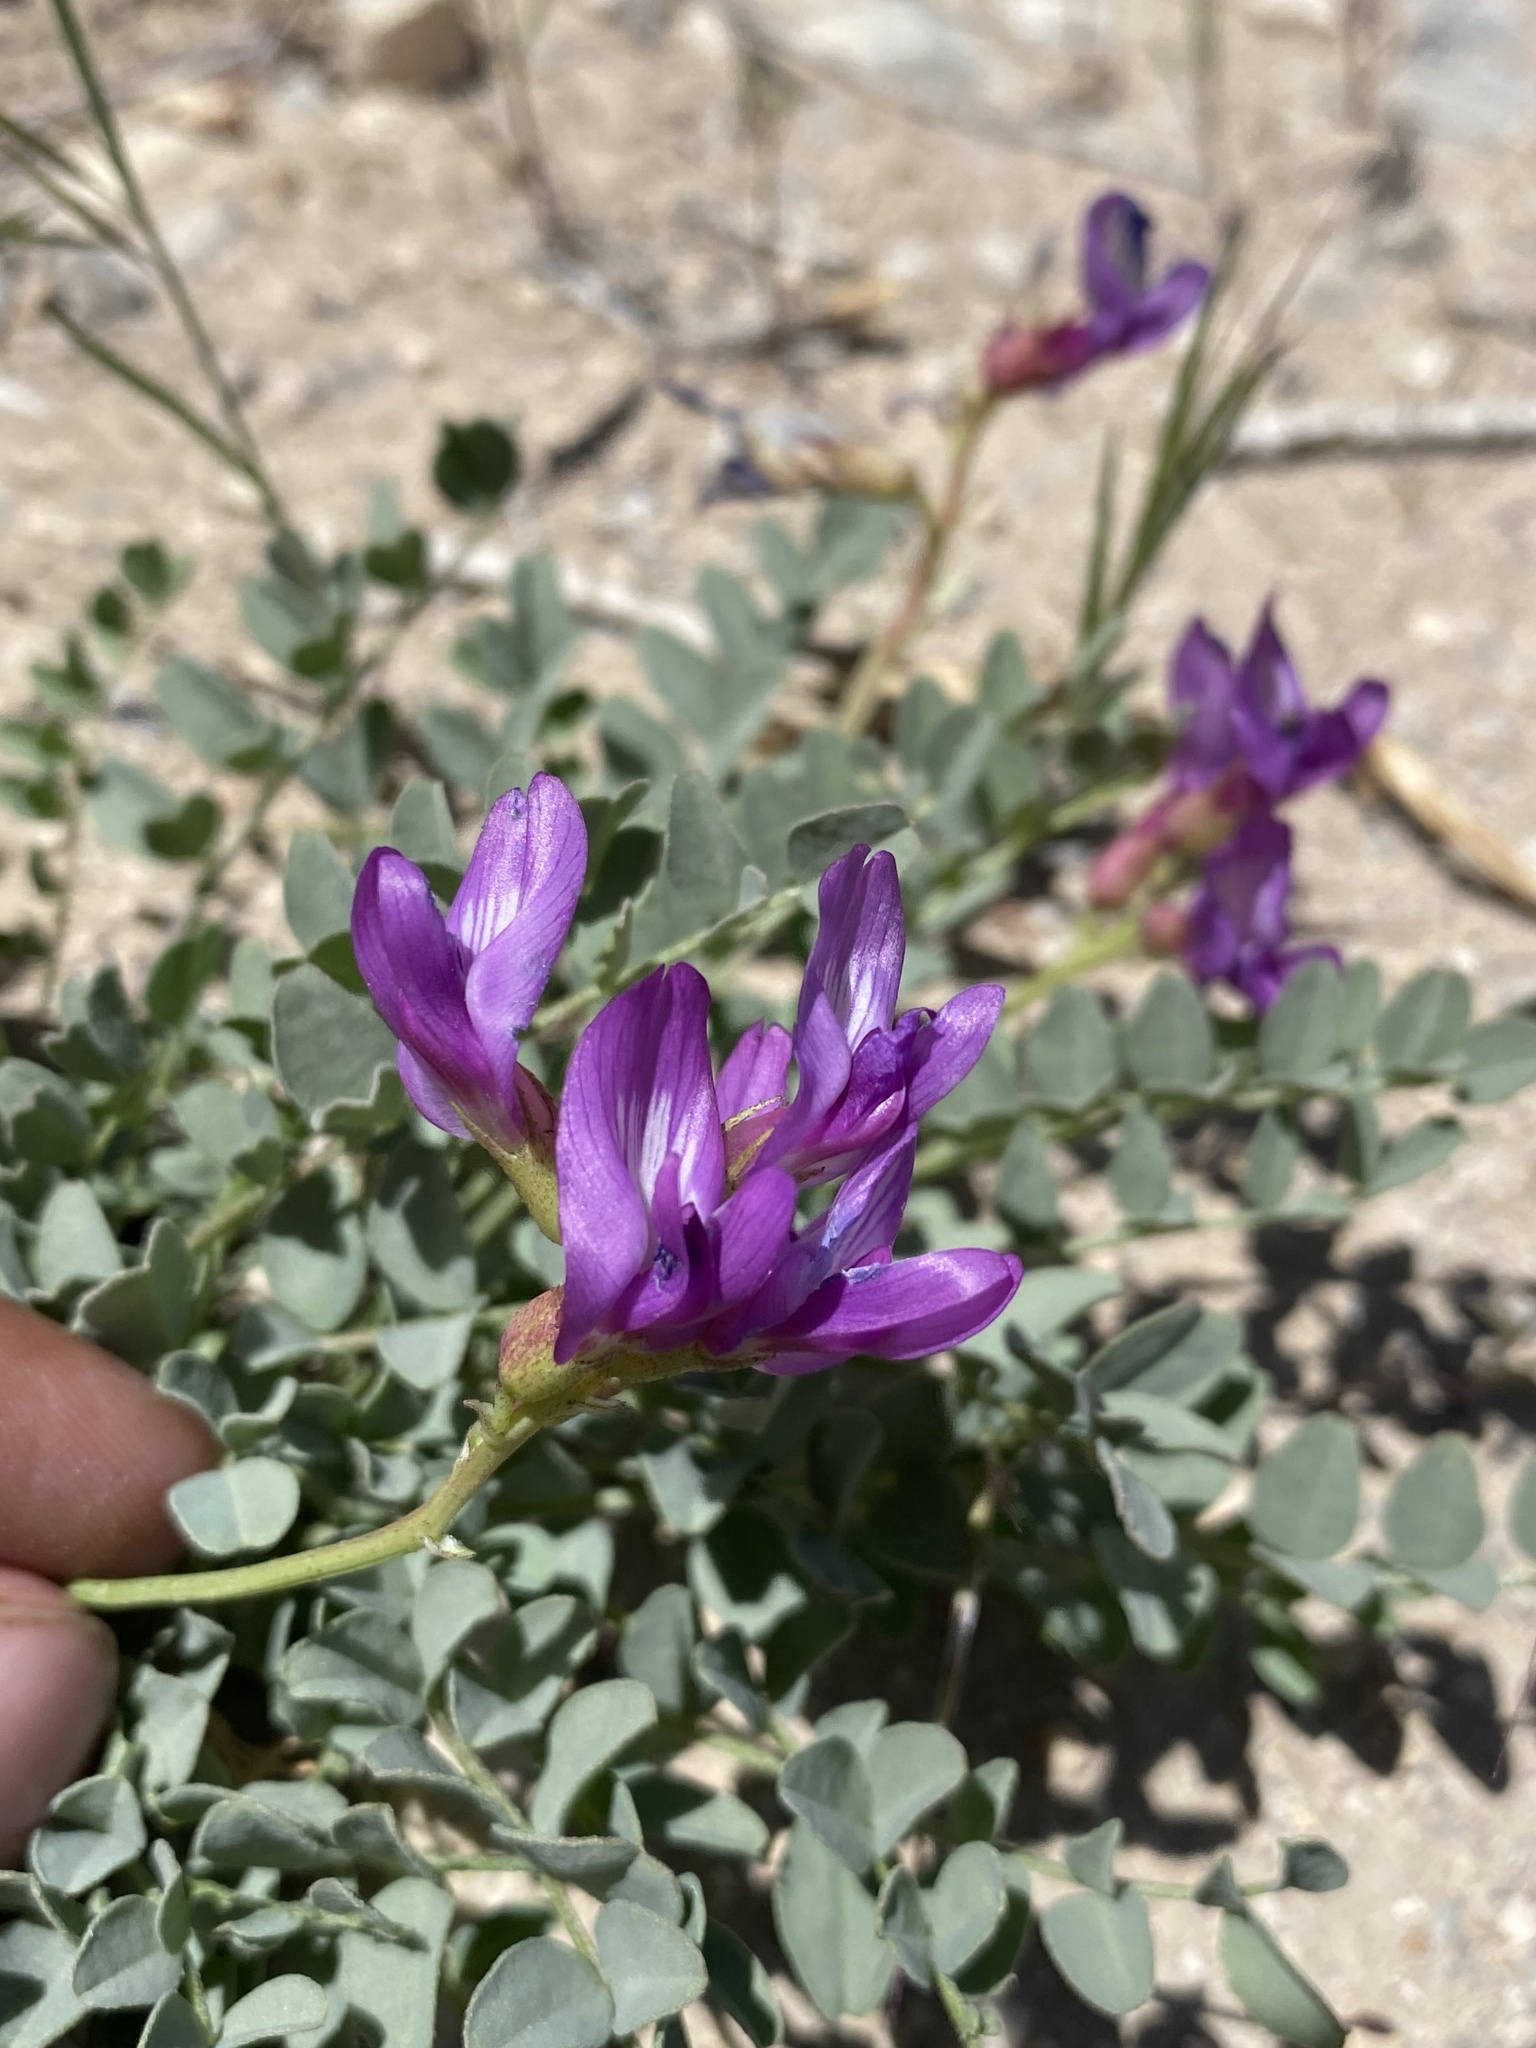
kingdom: Plantae
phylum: Tracheophyta
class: Magnoliopsida
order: Fabales
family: Fabaceae
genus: Astragalus
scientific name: Astragalus oophorus
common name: Egg milkvetch
